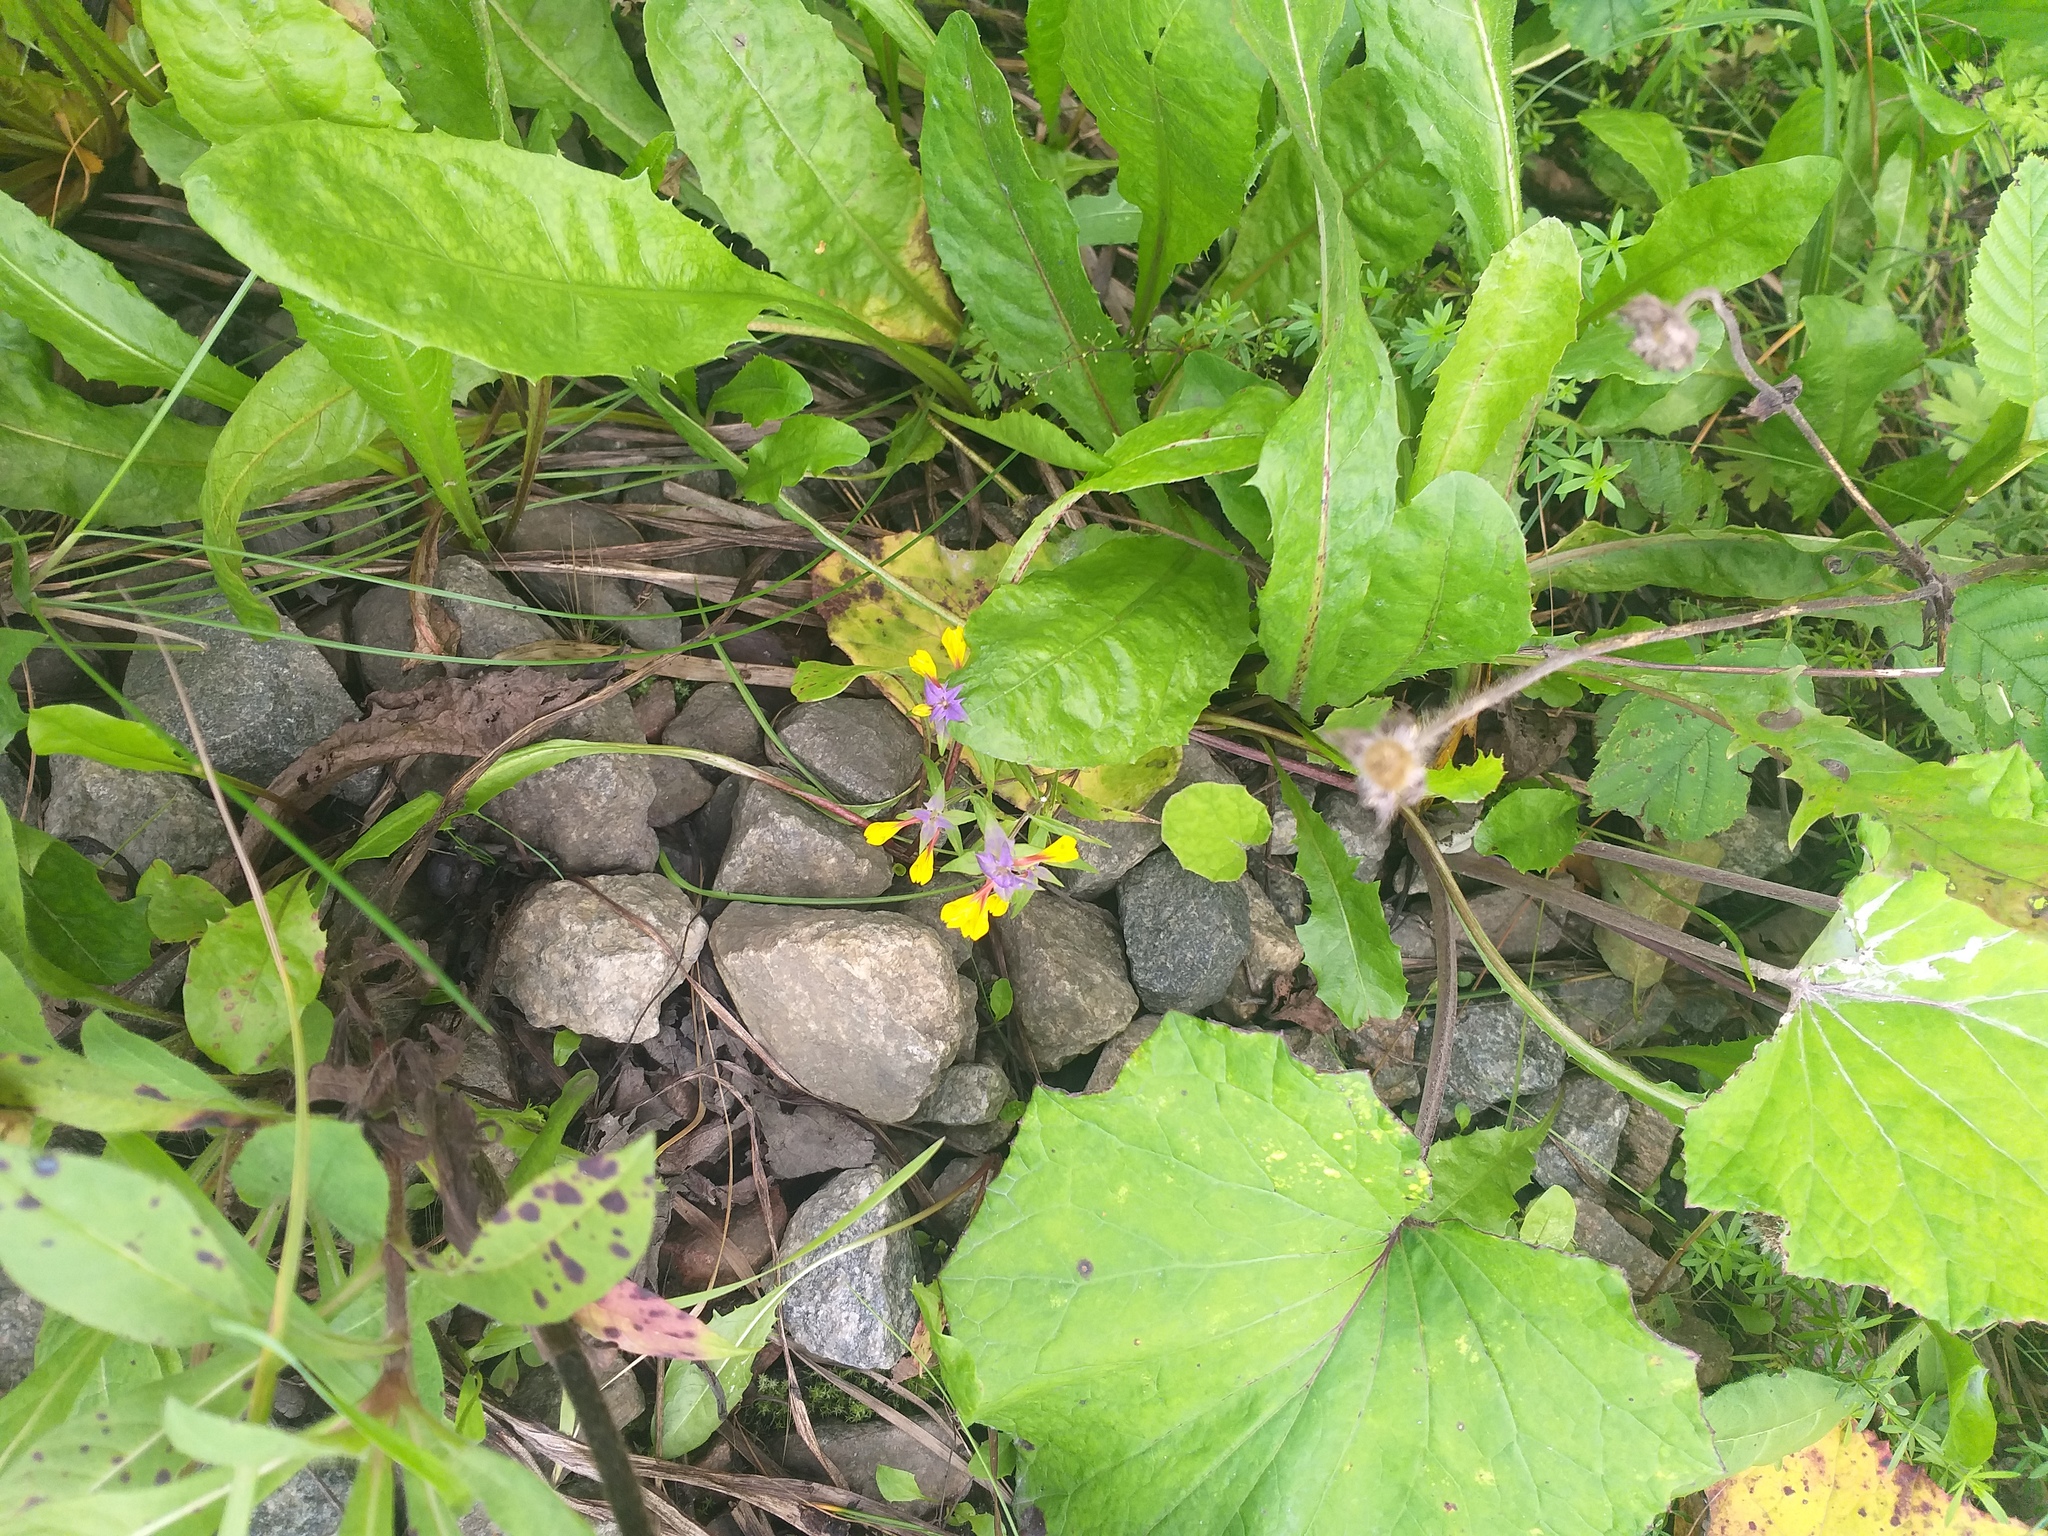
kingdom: Plantae
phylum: Tracheophyta
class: Magnoliopsida
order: Lamiales
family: Orobanchaceae
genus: Melampyrum
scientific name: Melampyrum nemorosum
